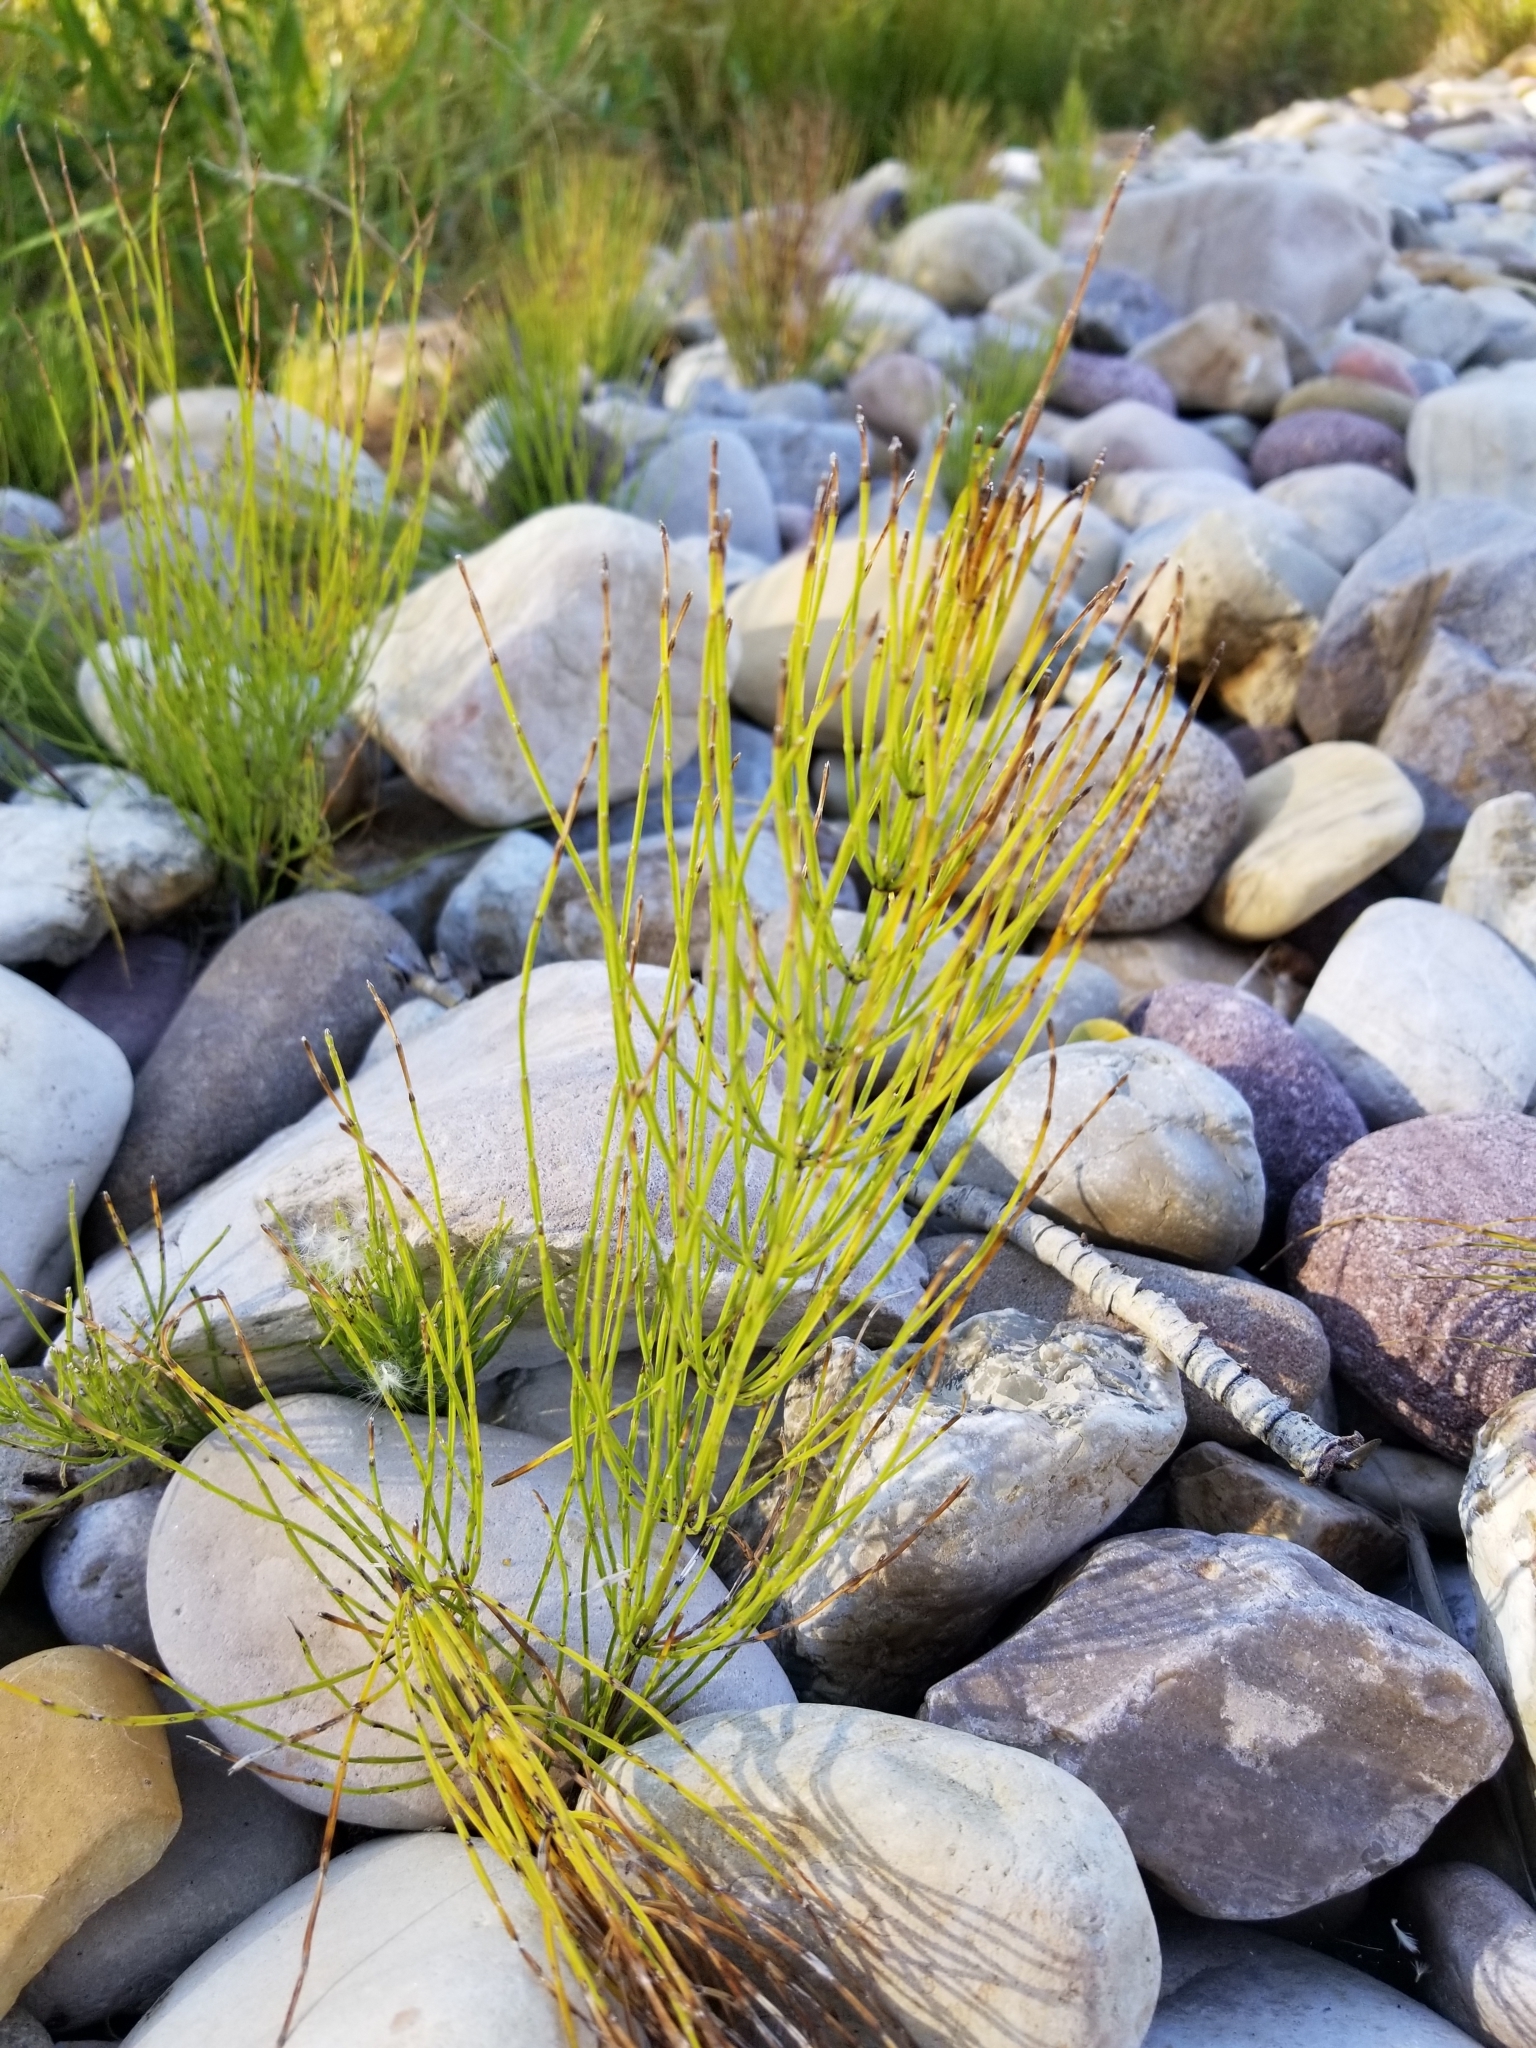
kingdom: Plantae
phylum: Tracheophyta
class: Polypodiopsida
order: Equisetales
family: Equisetaceae
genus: Equisetum
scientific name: Equisetum arvense
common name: Field horsetail
